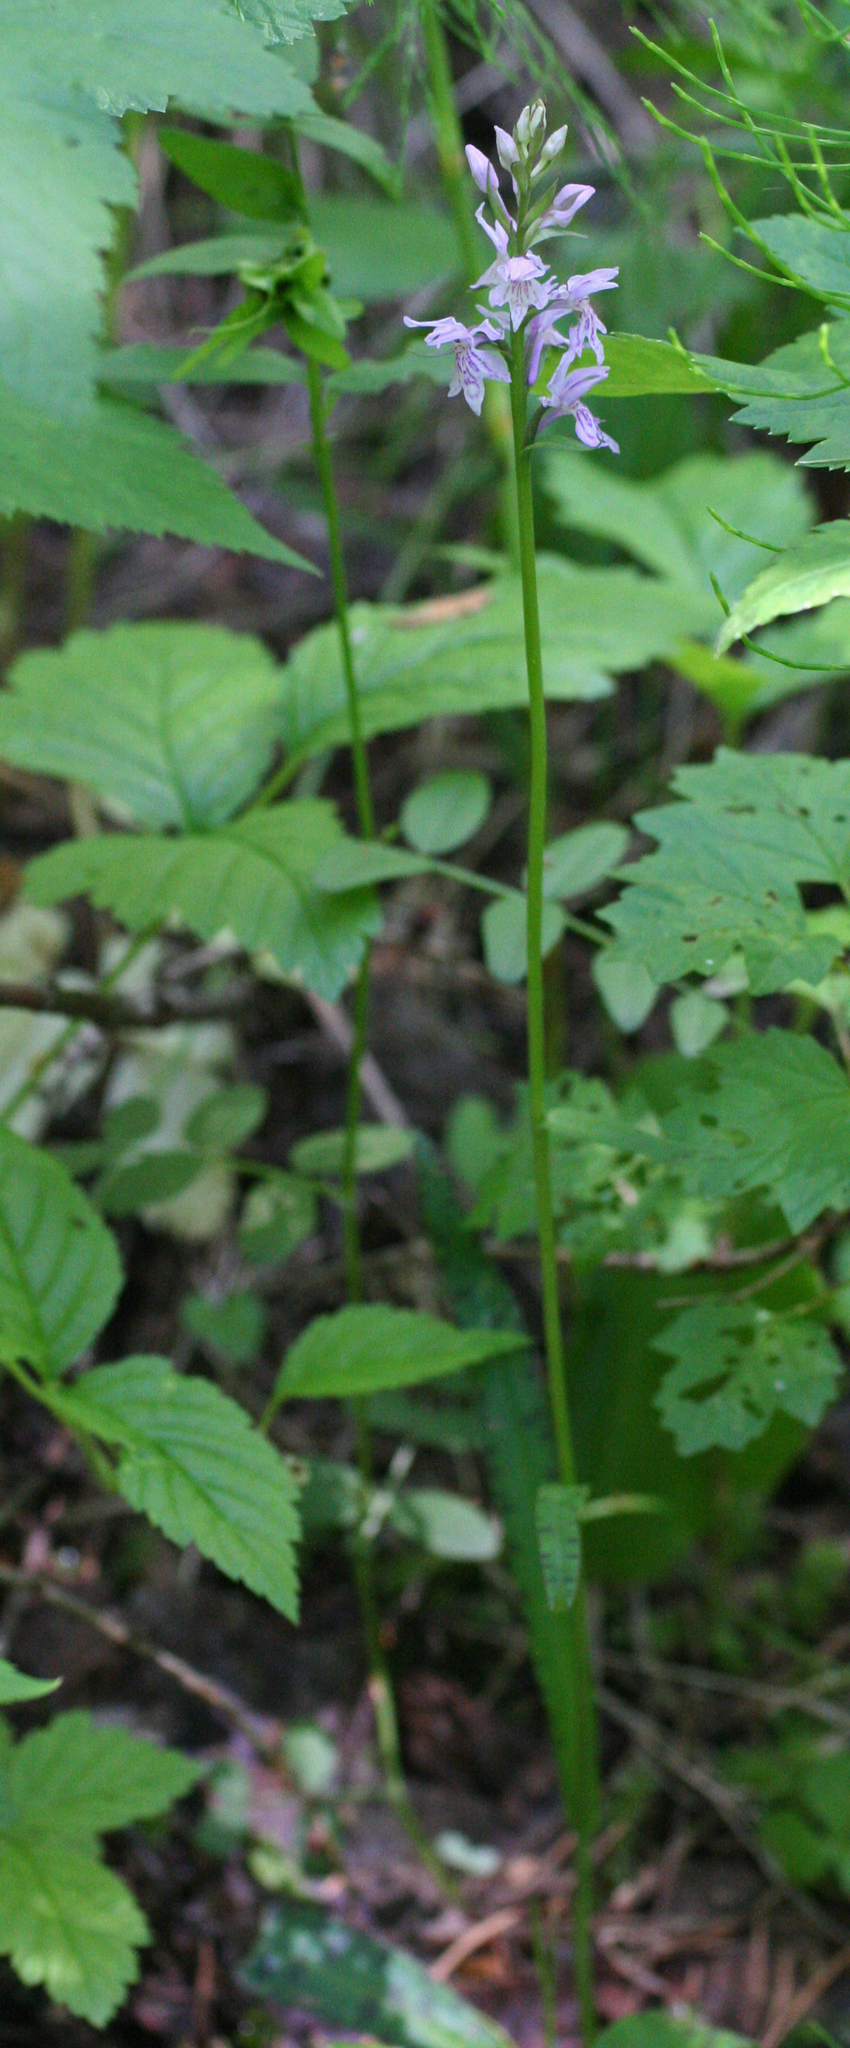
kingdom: Plantae
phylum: Tracheophyta
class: Liliopsida
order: Asparagales
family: Orchidaceae
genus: Dactylorhiza
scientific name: Dactylorhiza maculata
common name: Heath spotted-orchid
